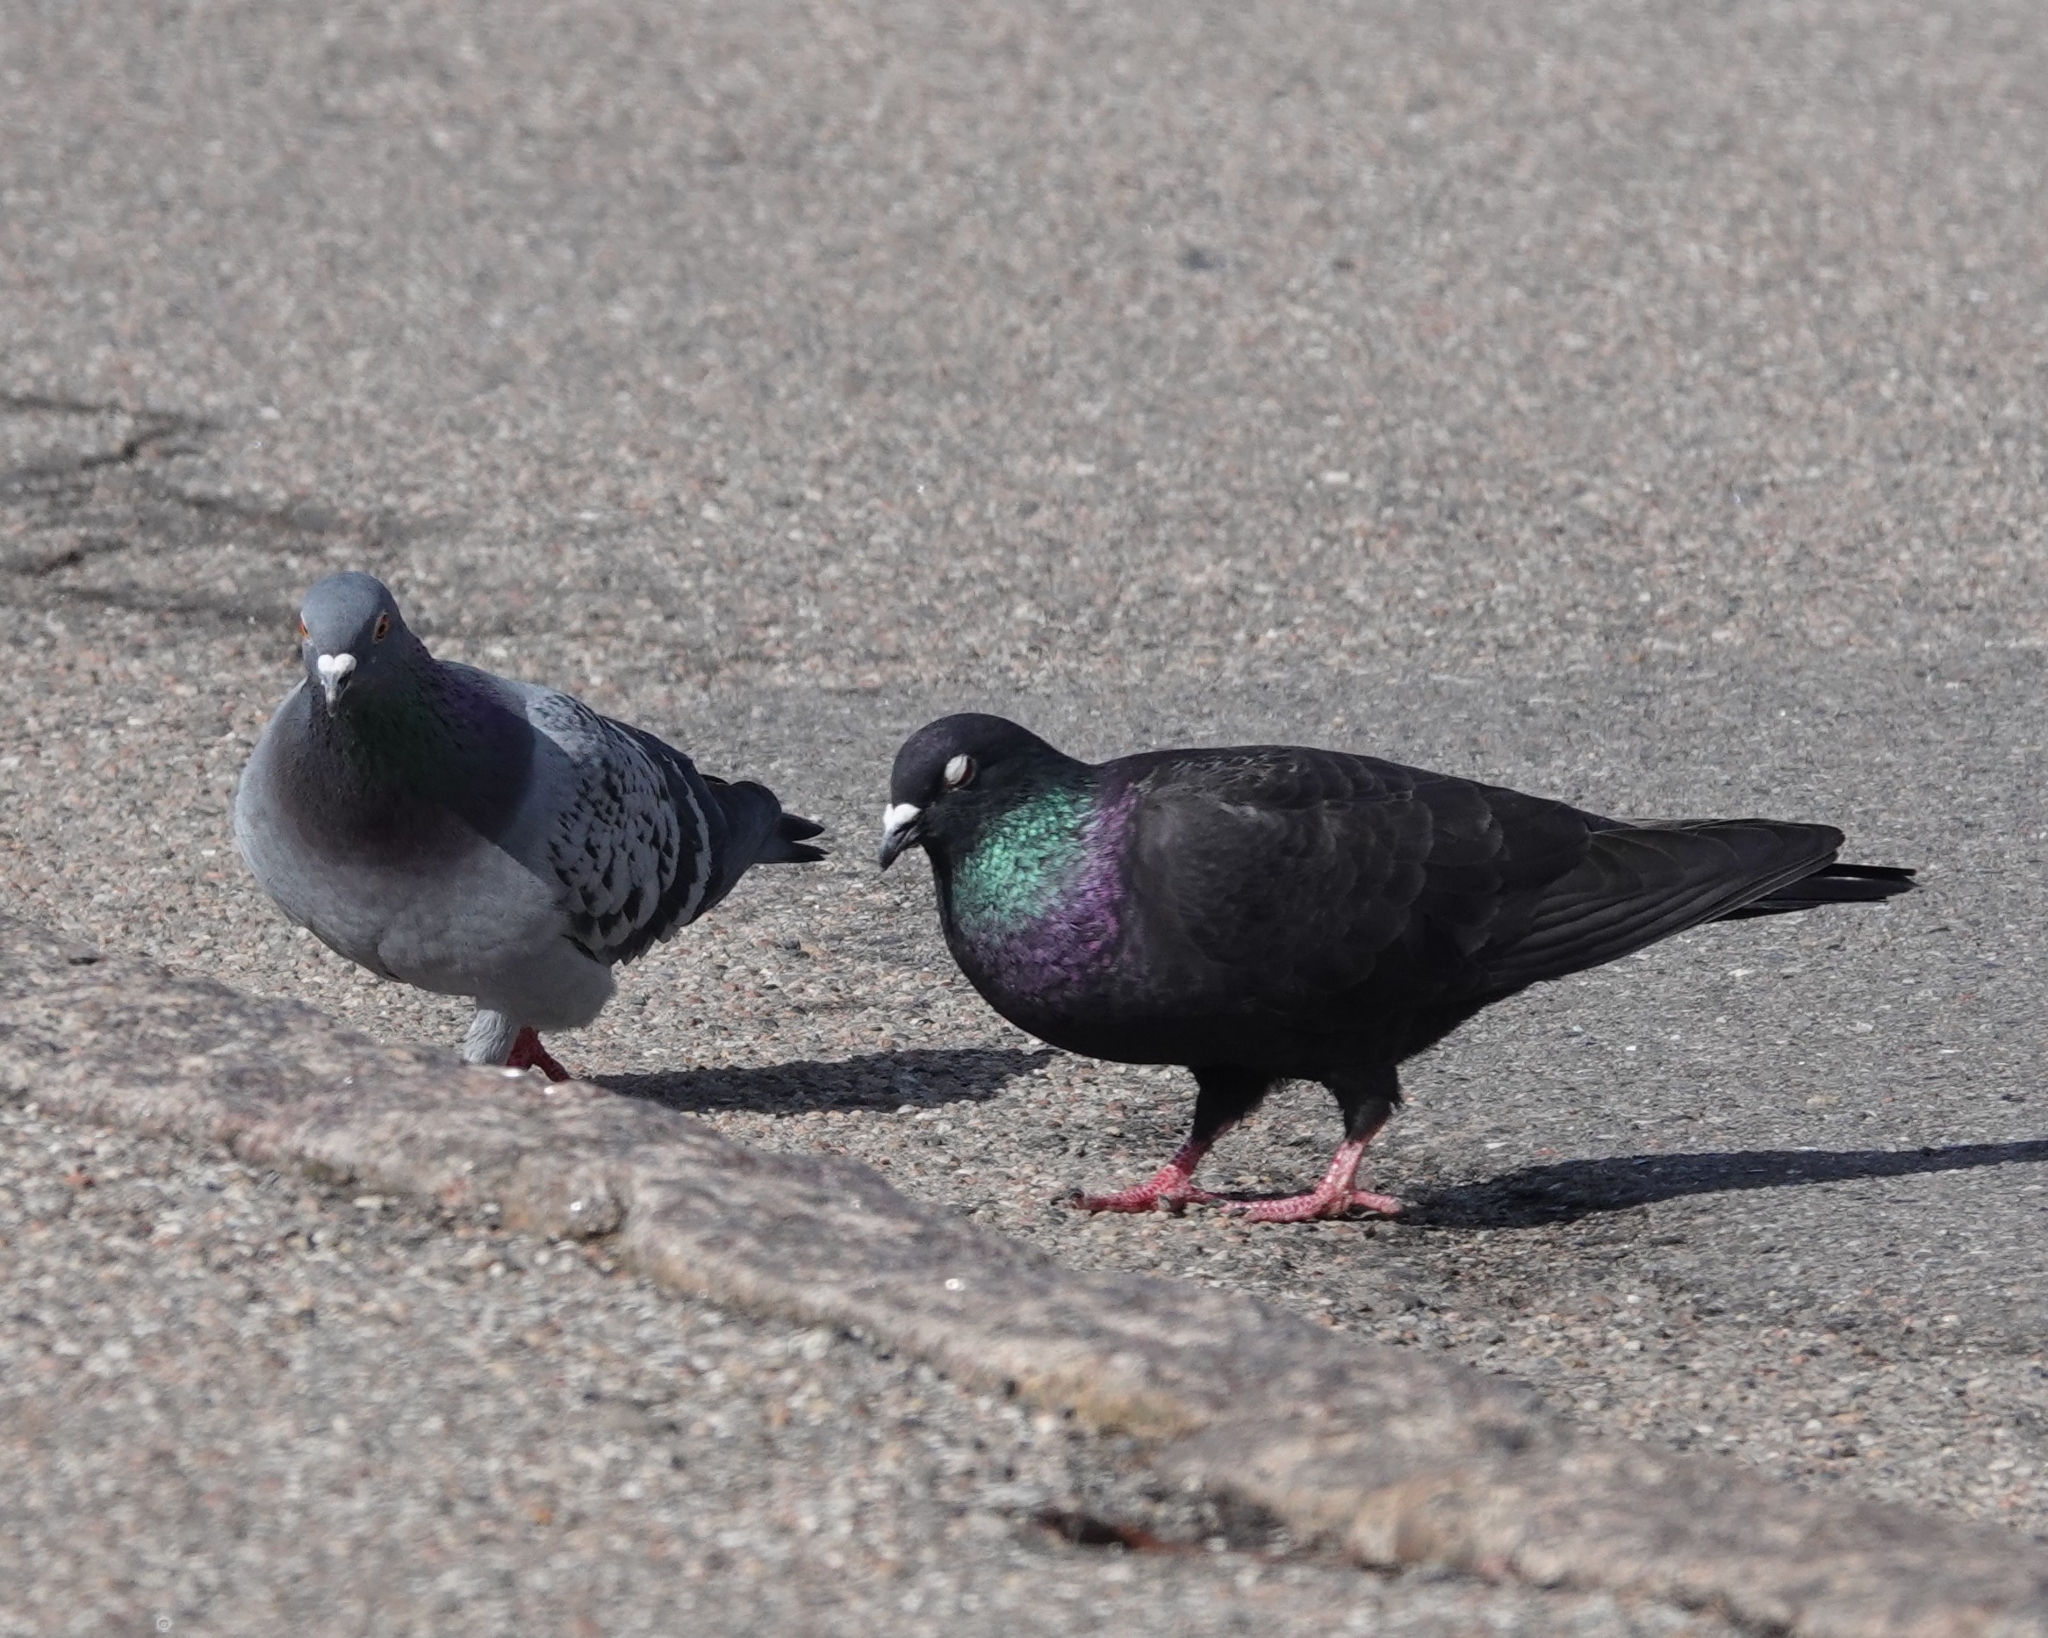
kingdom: Animalia
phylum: Chordata
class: Aves
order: Columbiformes
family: Columbidae
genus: Columba
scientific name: Columba livia
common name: Rock pigeon
